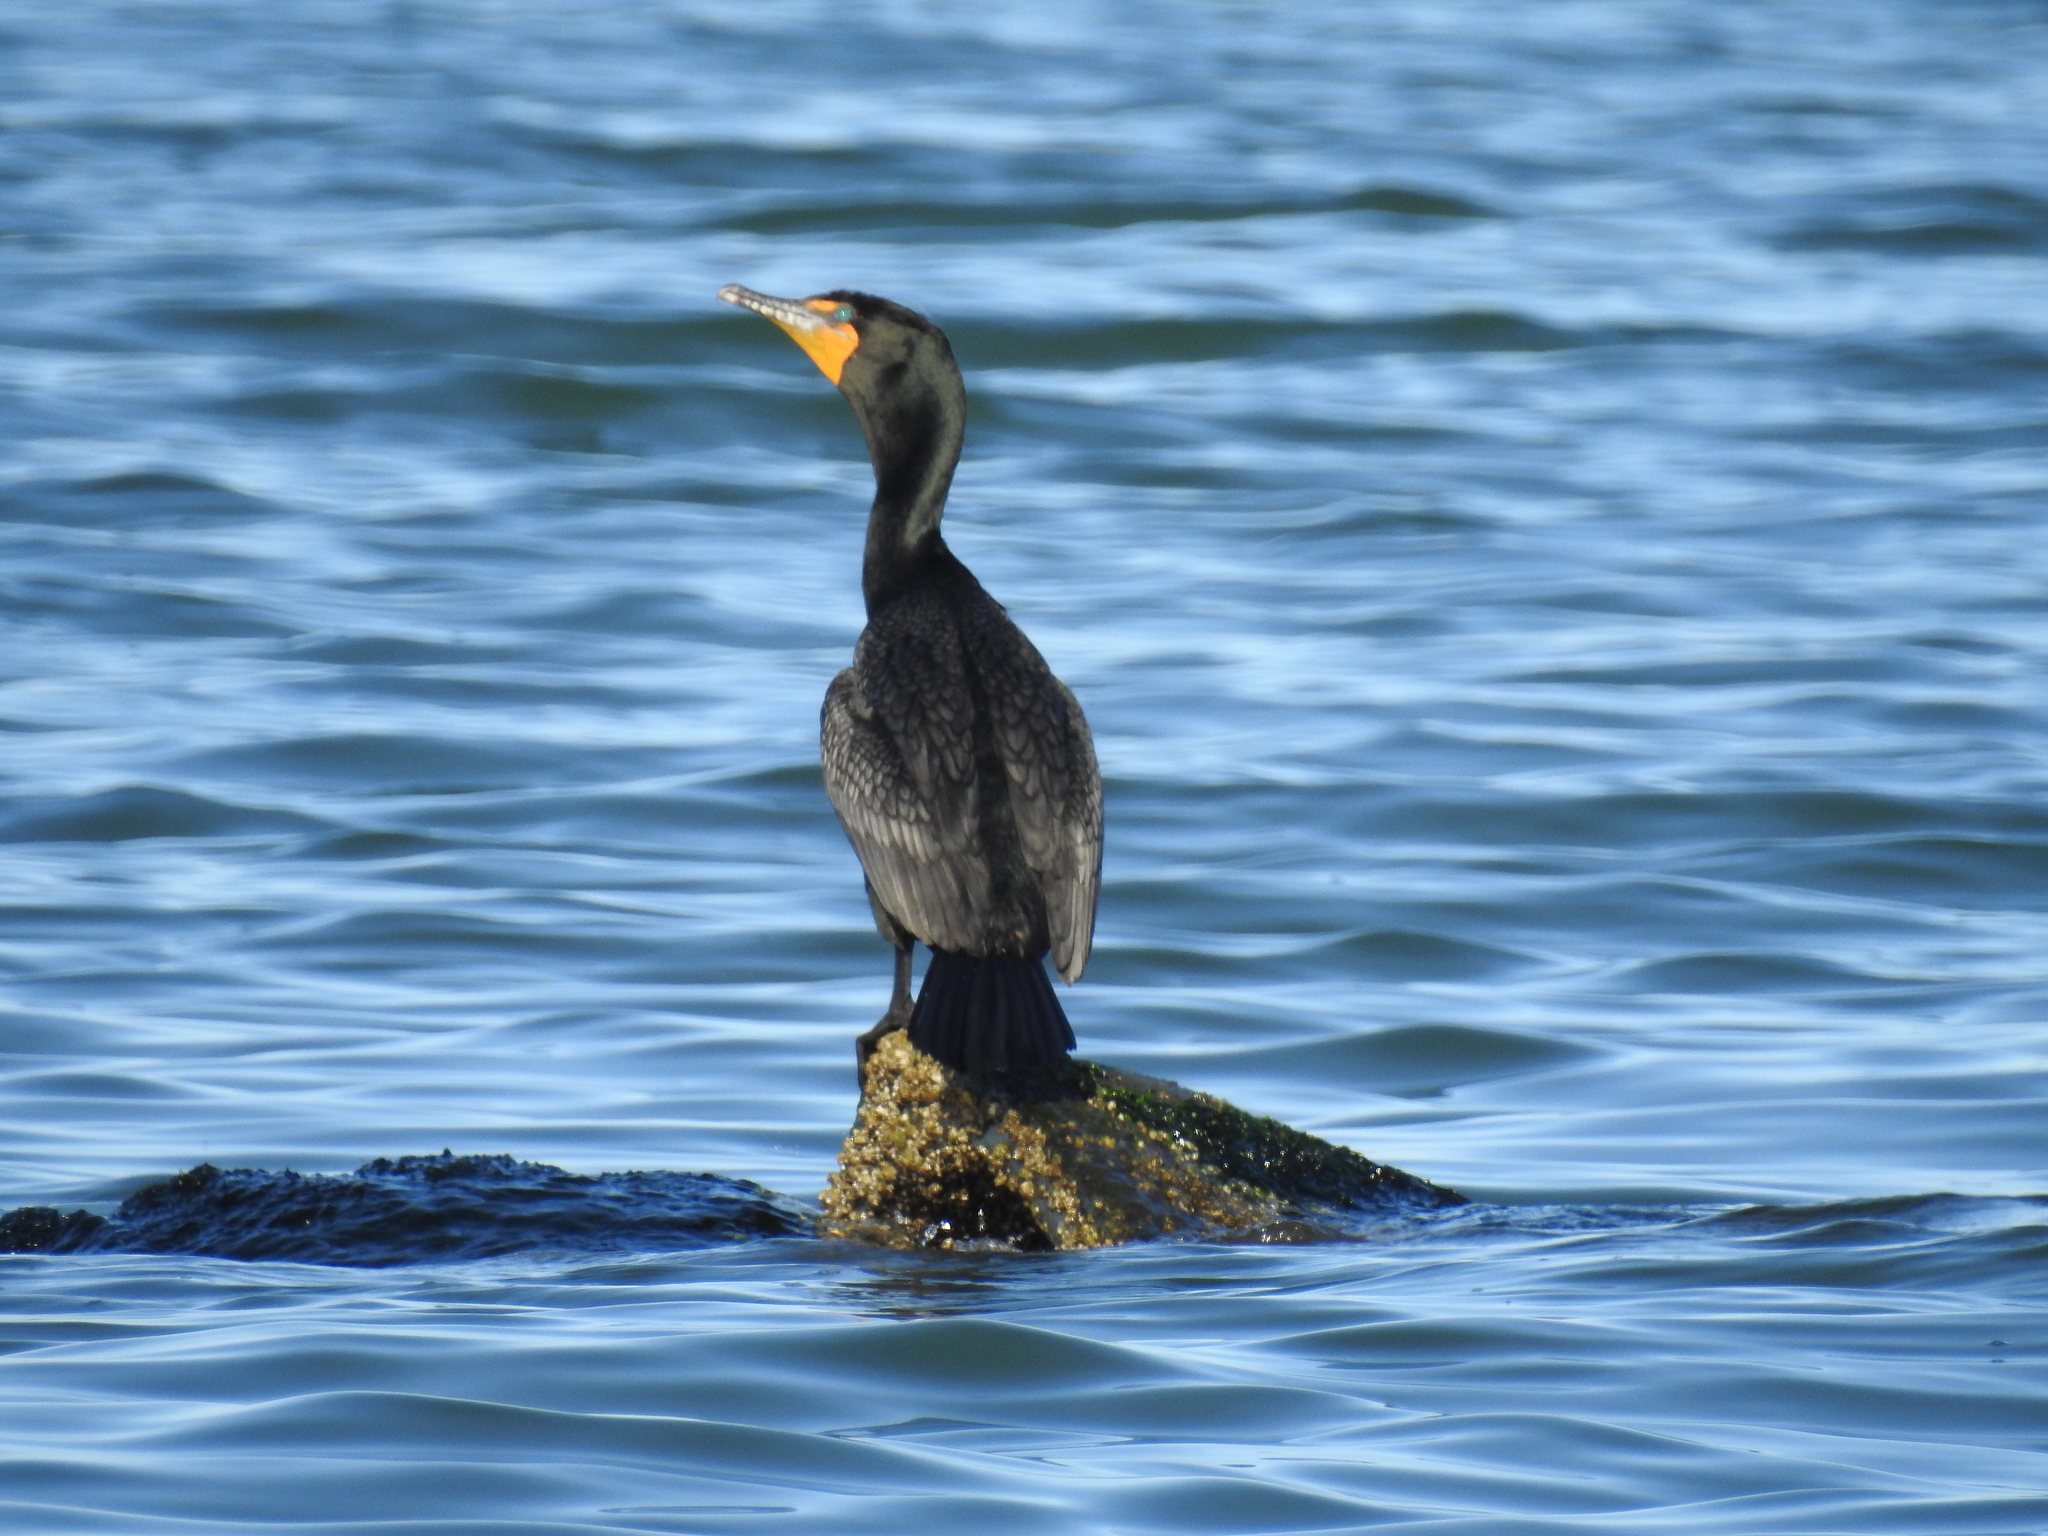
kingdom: Animalia
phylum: Chordata
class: Aves
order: Suliformes
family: Phalacrocoracidae
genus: Phalacrocorax
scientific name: Phalacrocorax auritus
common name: Double-crested cormorant
